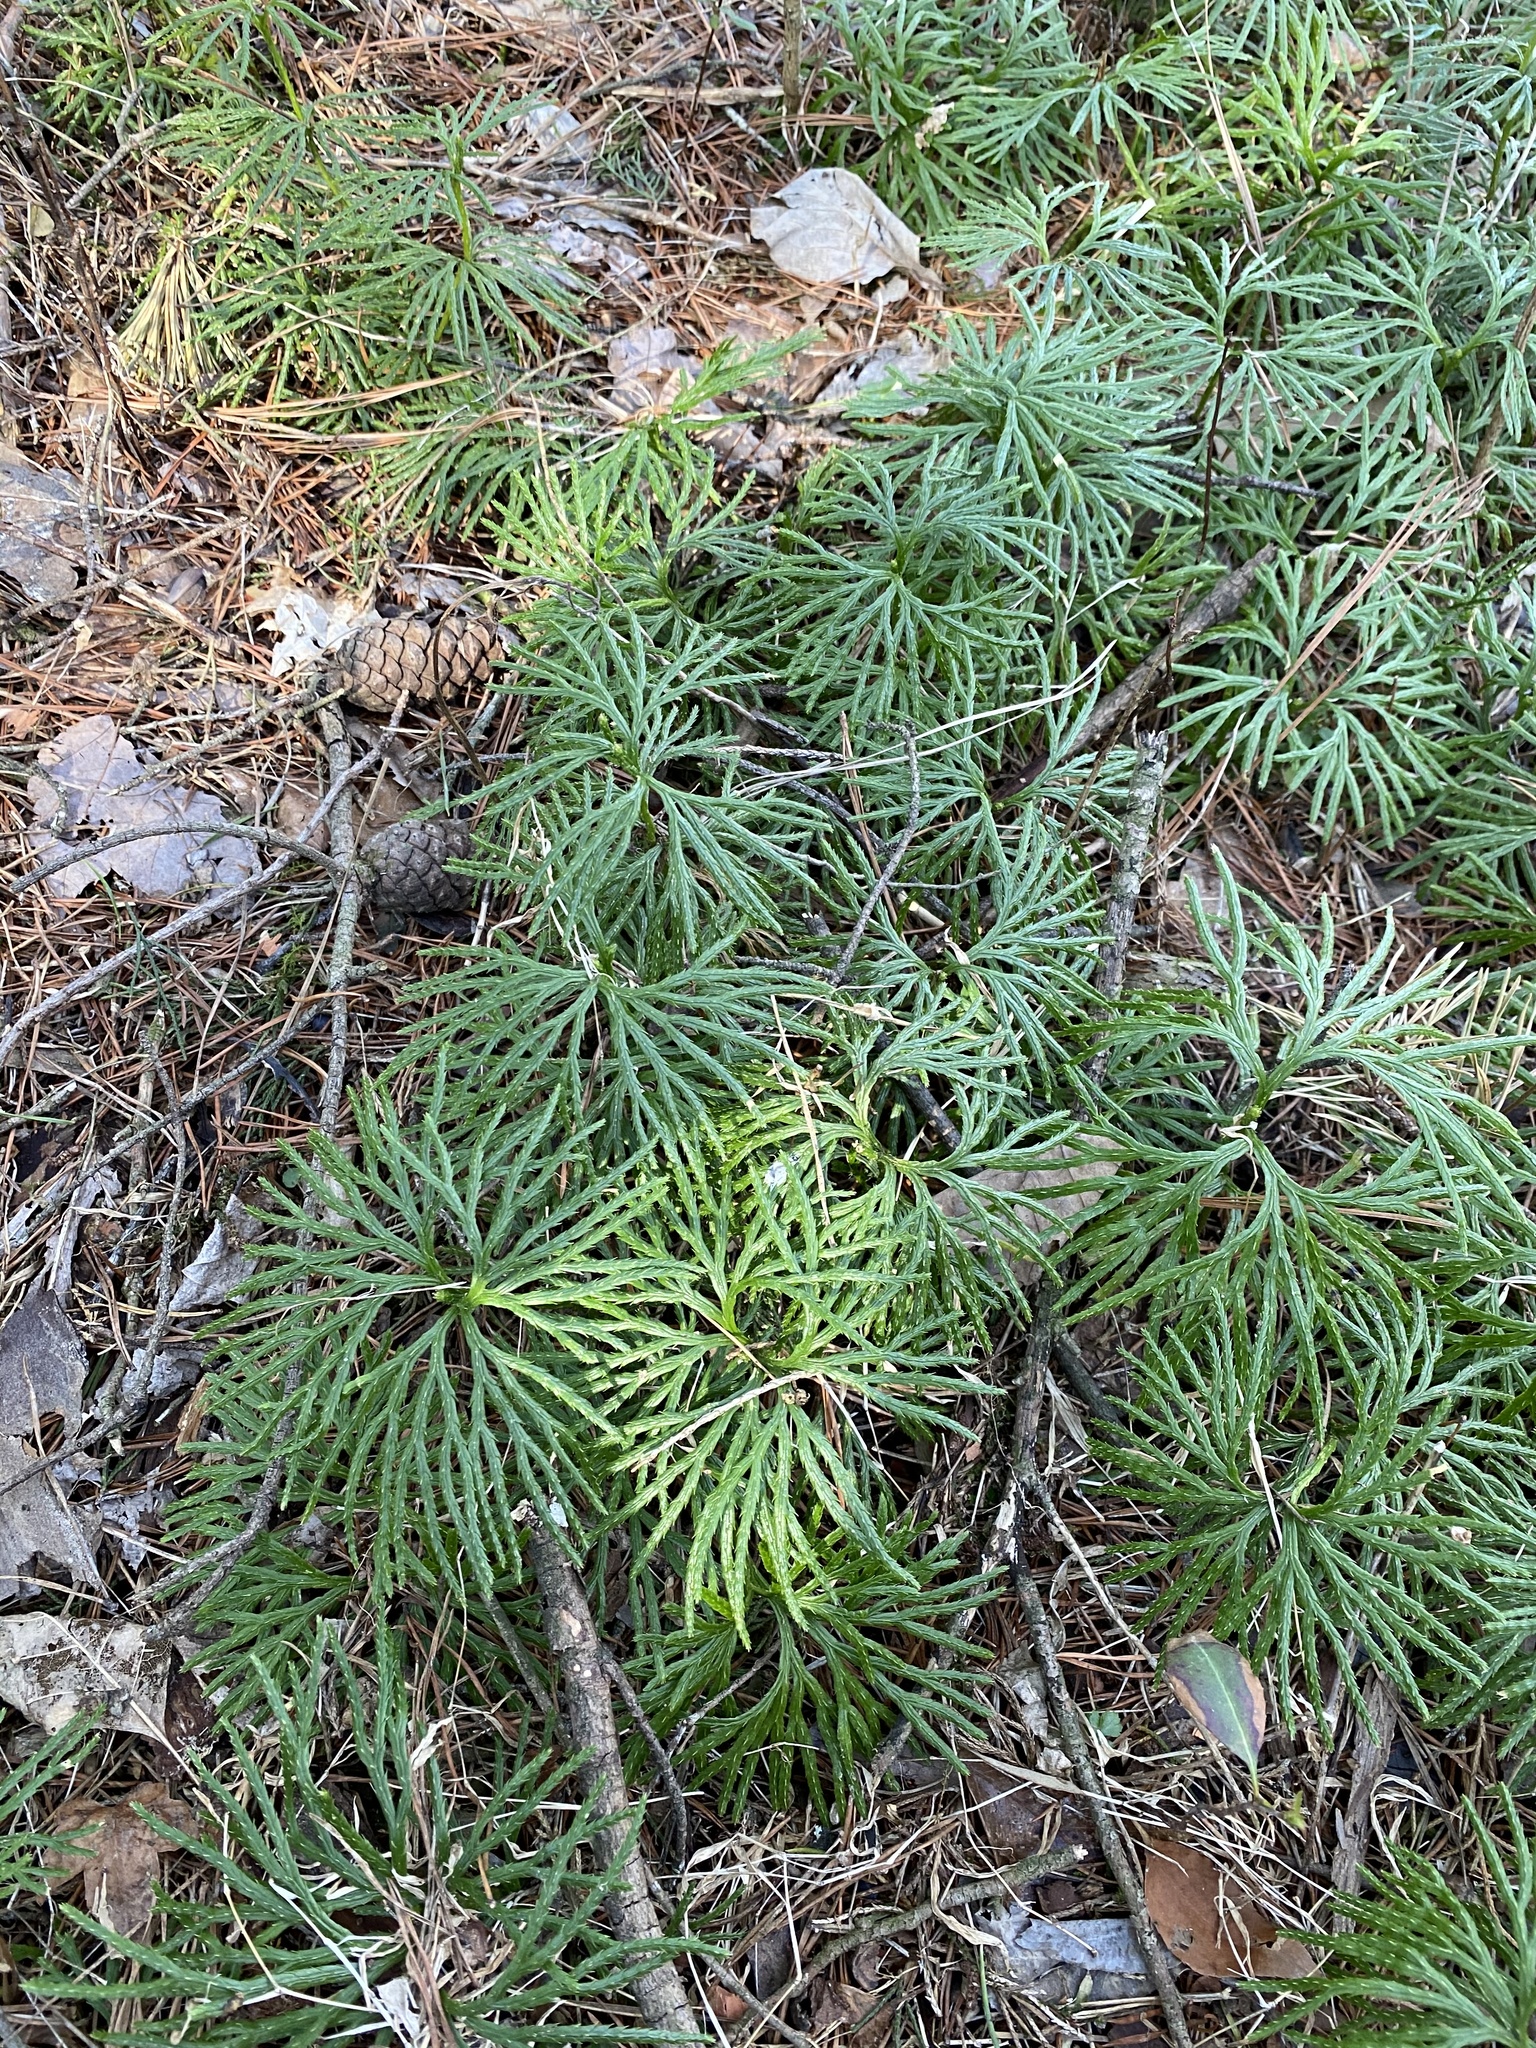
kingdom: Plantae
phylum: Tracheophyta
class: Lycopodiopsida
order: Lycopodiales
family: Lycopodiaceae
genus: Diphasiastrum
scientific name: Diphasiastrum digitatum
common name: Southern running-pine
